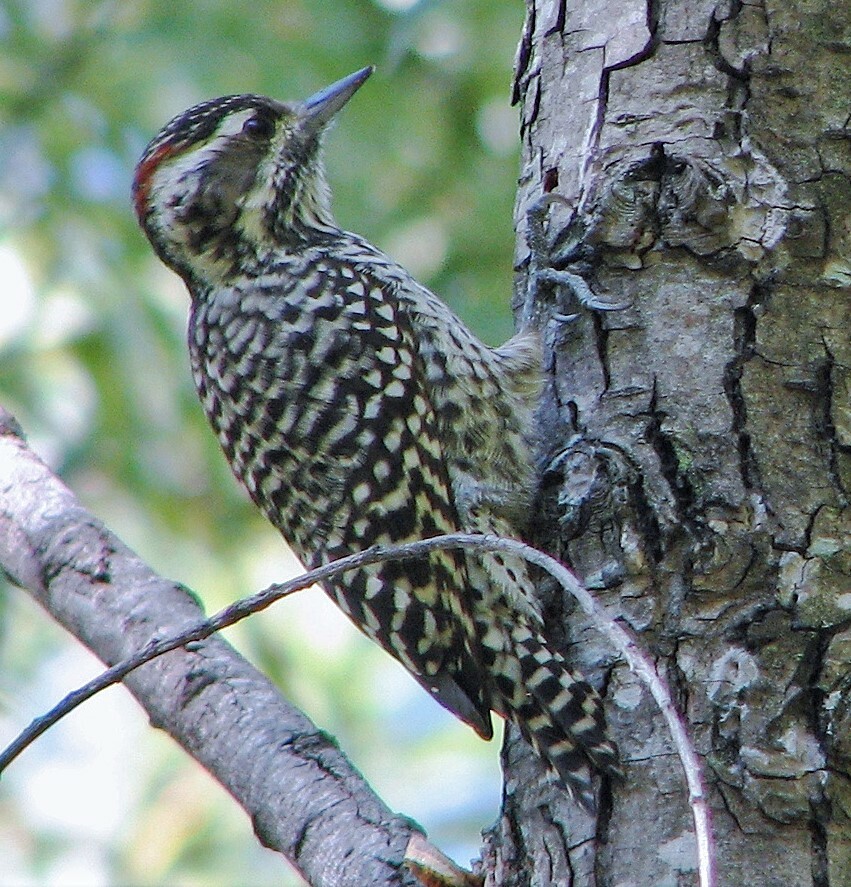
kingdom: Animalia
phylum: Chordata
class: Aves
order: Piciformes
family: Picidae
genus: Veniliornis
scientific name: Veniliornis mixtus
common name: Checkered woodpecker
